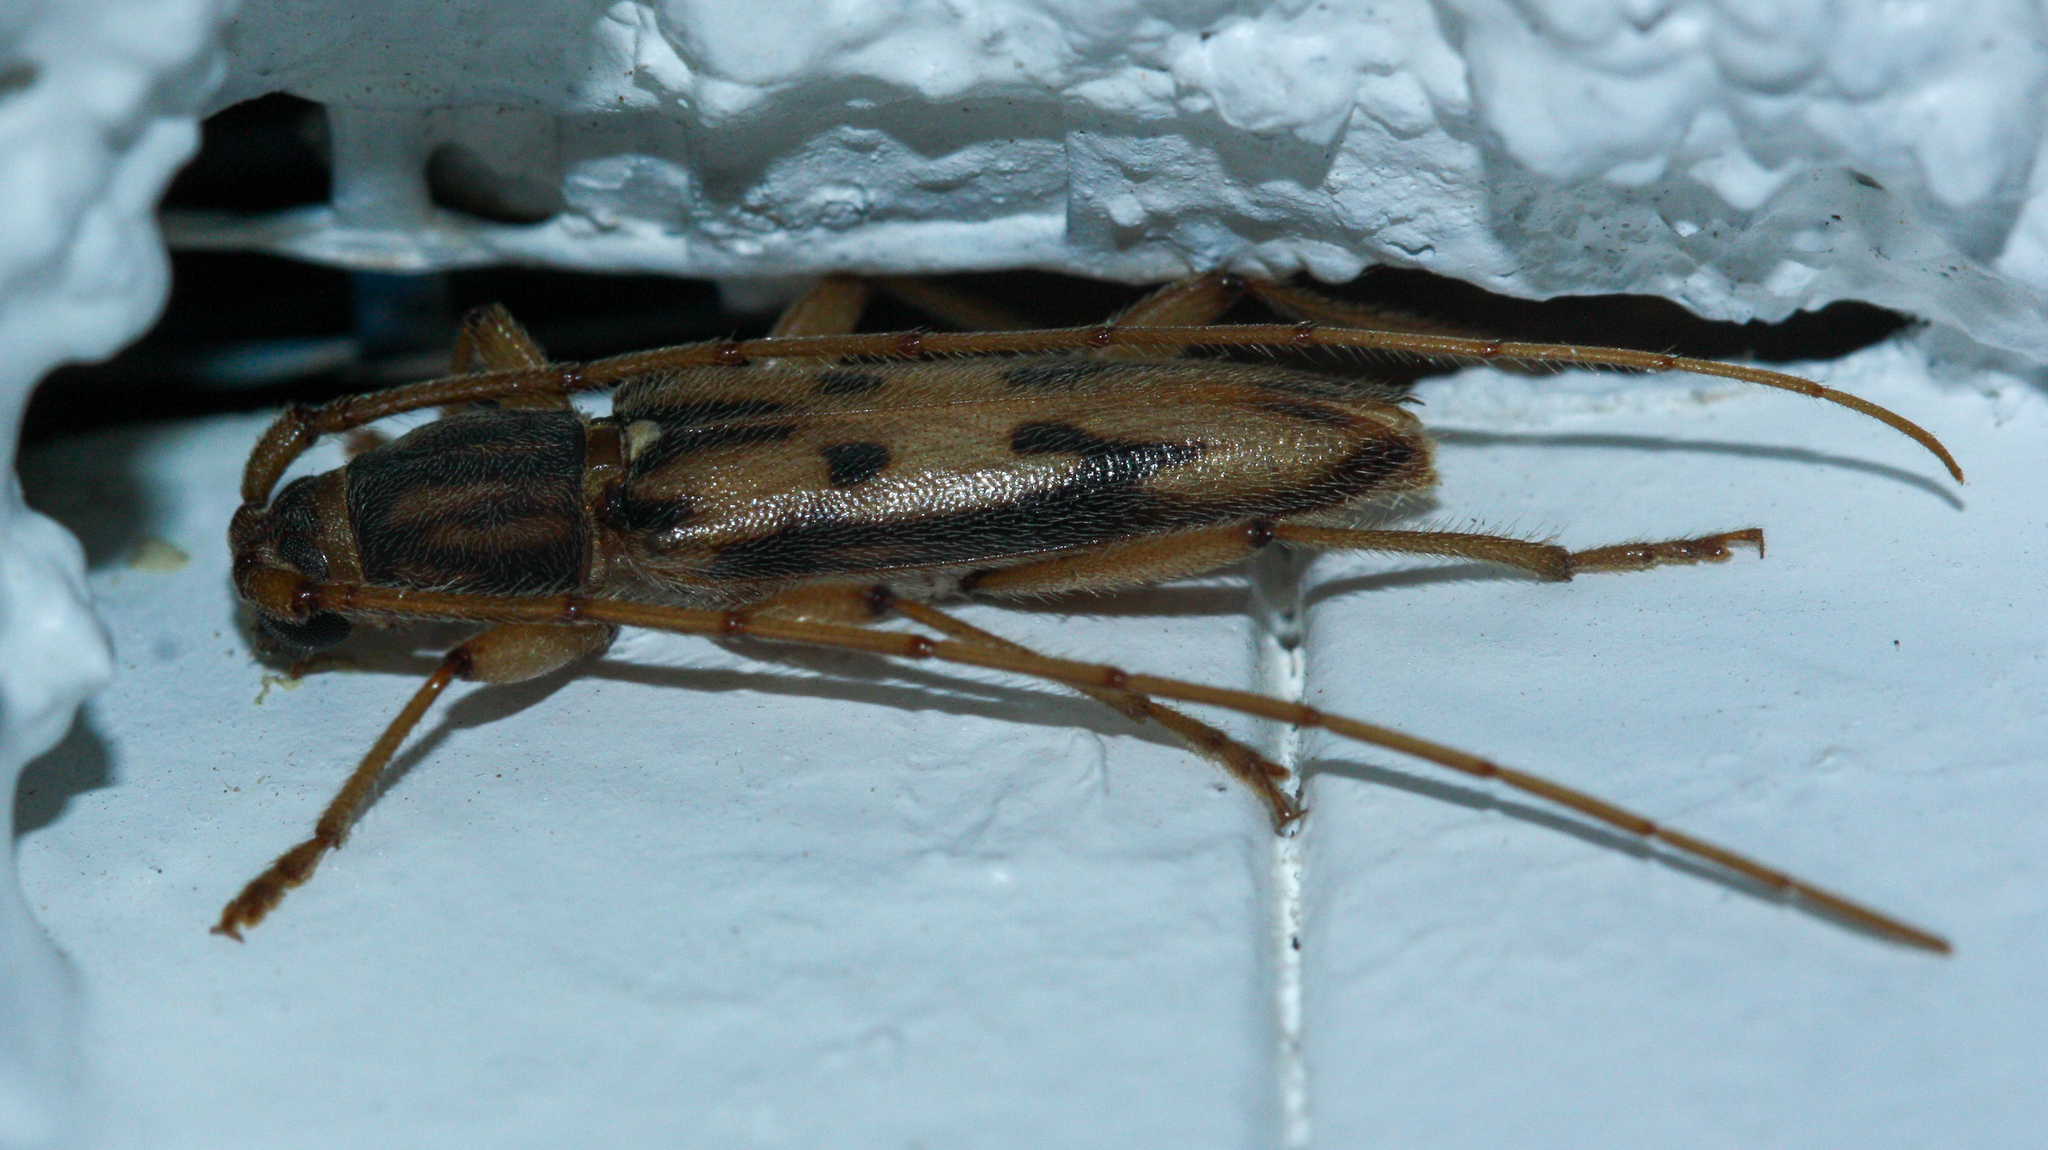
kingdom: Animalia
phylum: Arthropoda
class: Insecta
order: Coleoptera
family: Cerambycidae
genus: Achryson
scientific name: Achryson surinamum
